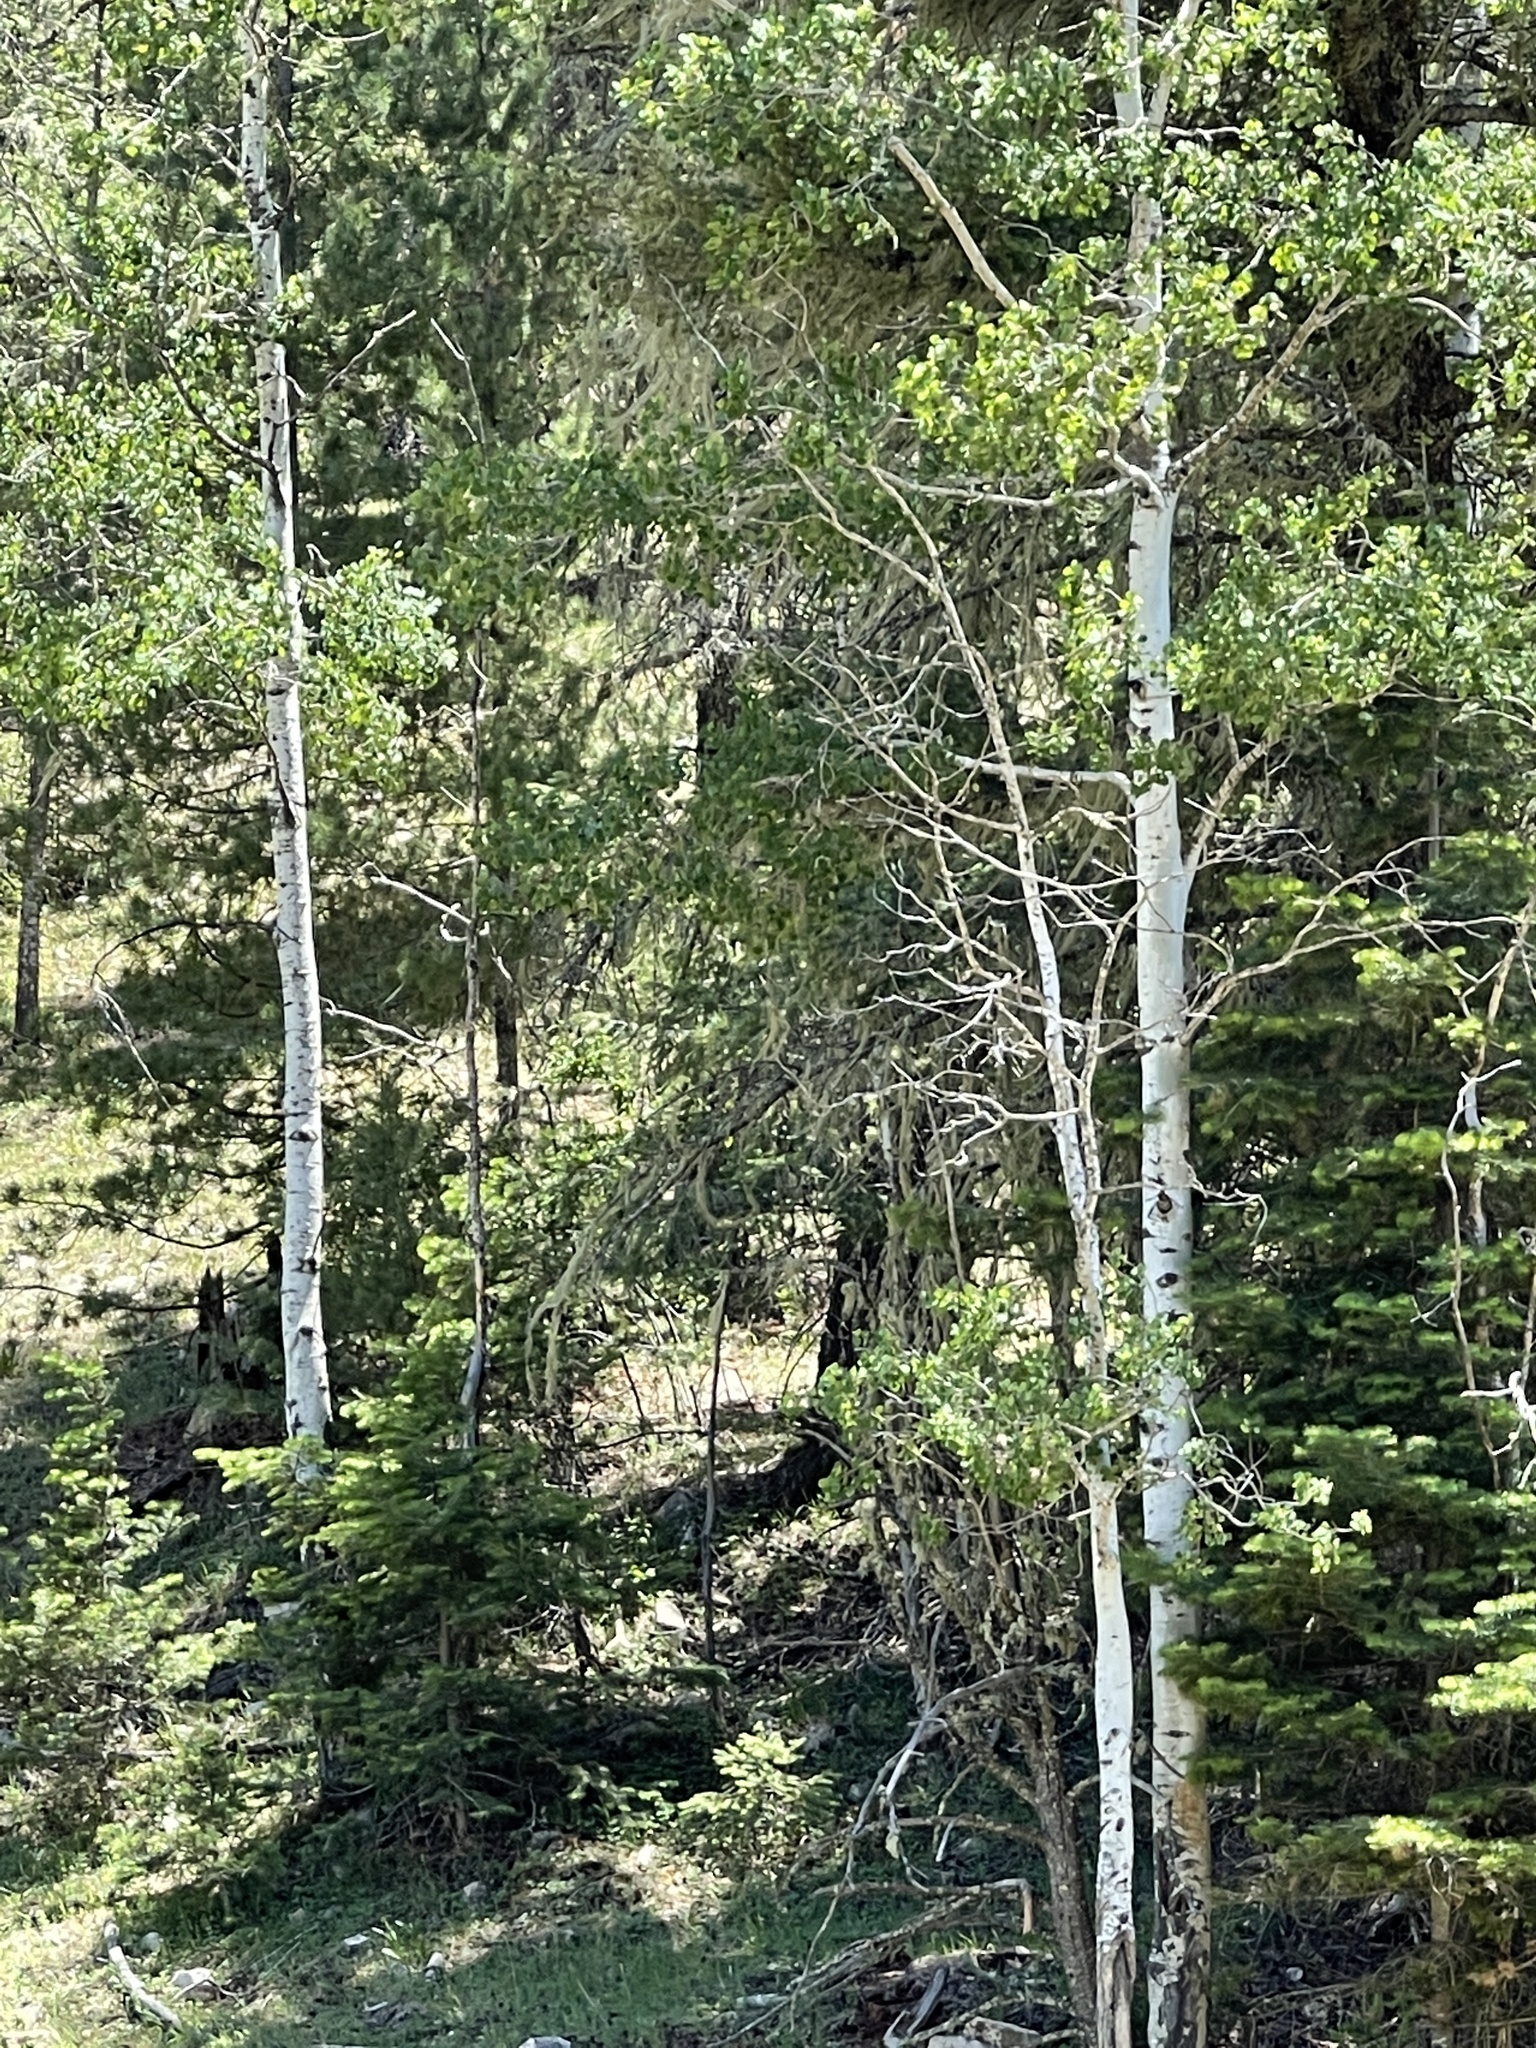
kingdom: Plantae
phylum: Tracheophyta
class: Magnoliopsida
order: Malpighiales
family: Salicaceae
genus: Populus
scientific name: Populus tremuloides
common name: Quaking aspen
